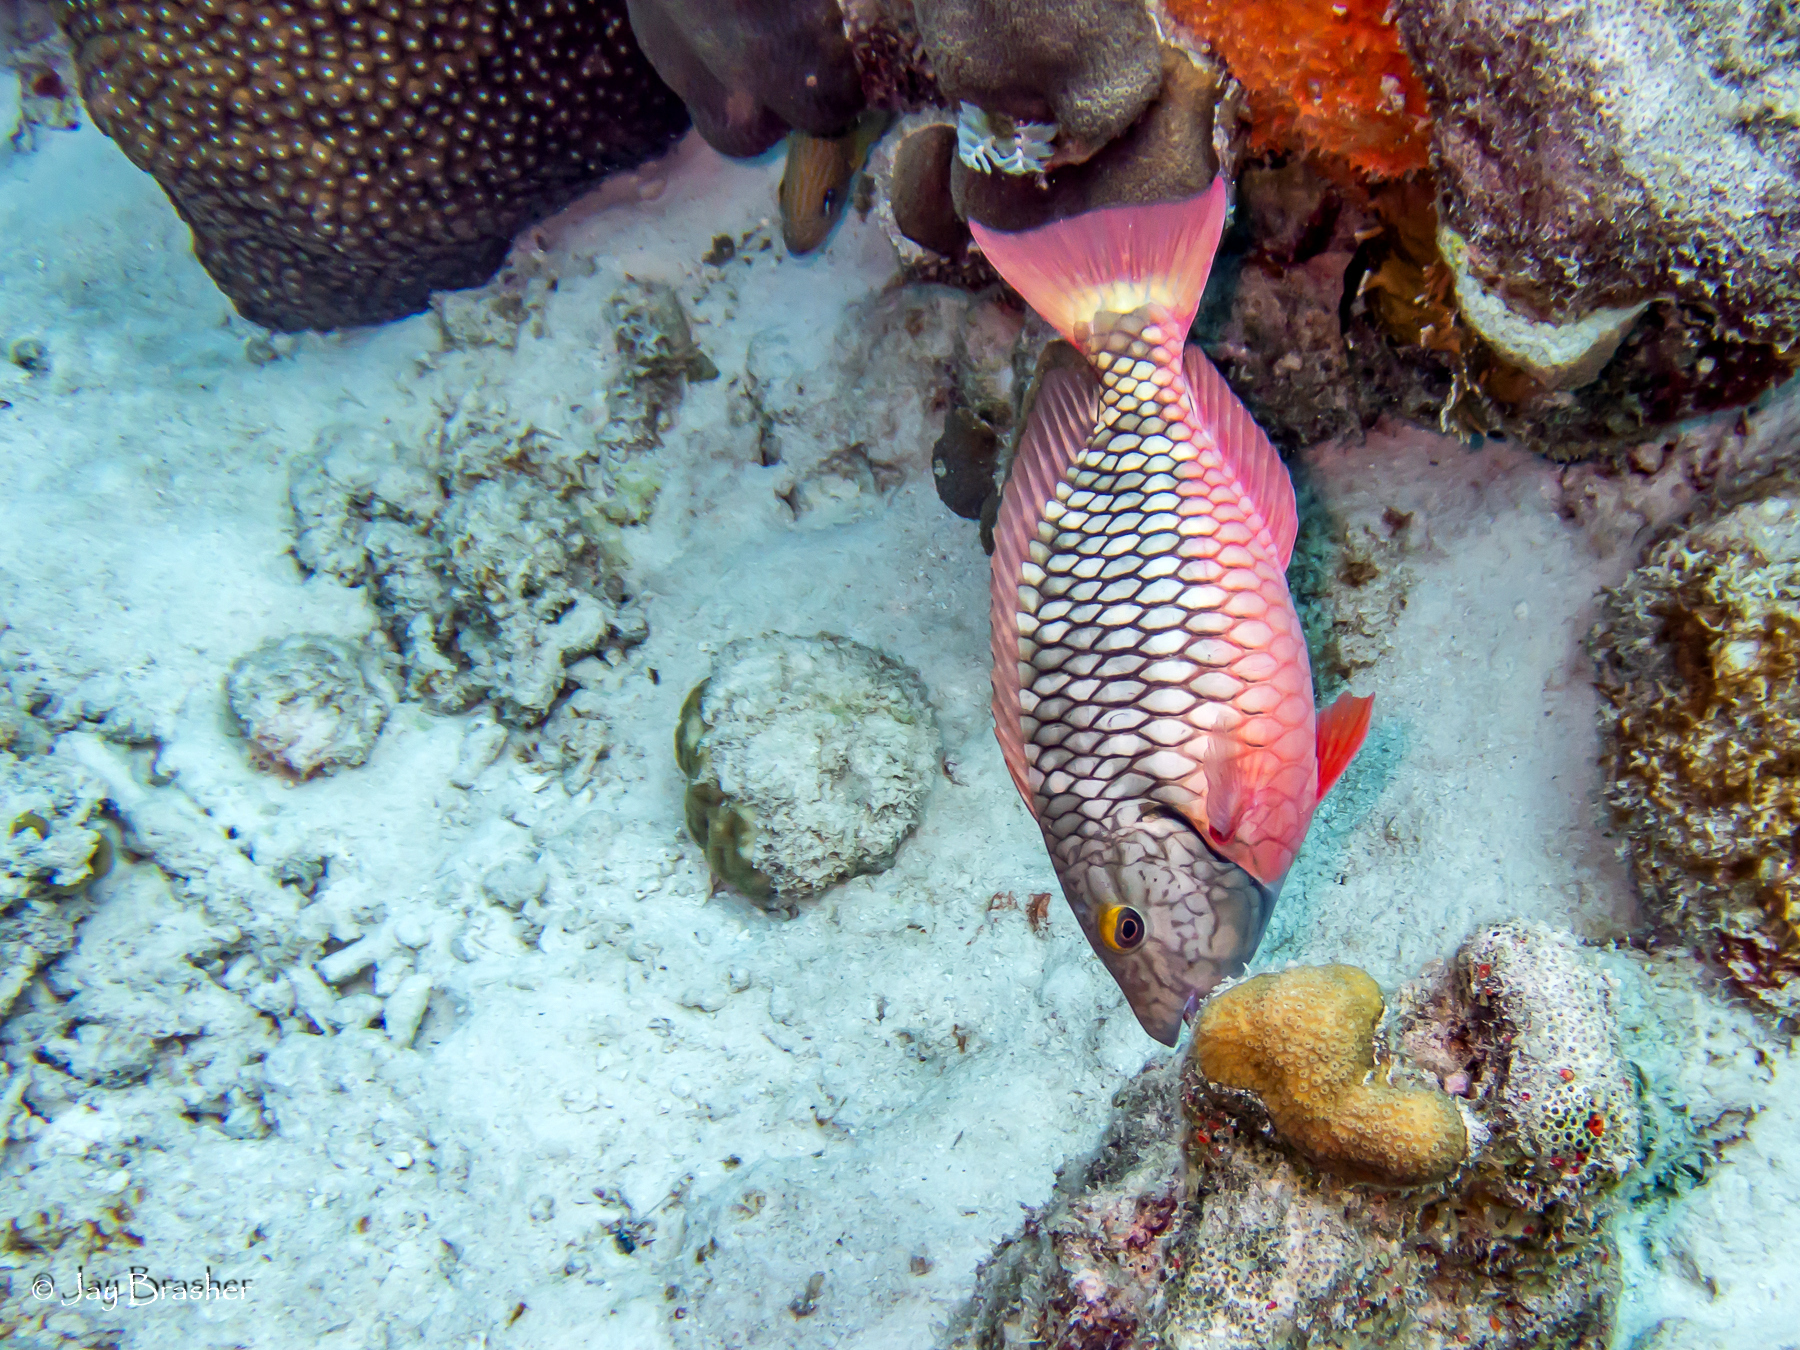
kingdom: Animalia
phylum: Chordata
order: Perciformes
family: Scaridae
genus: Sparisoma
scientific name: Sparisoma viride
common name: Stoplight parrotfish
